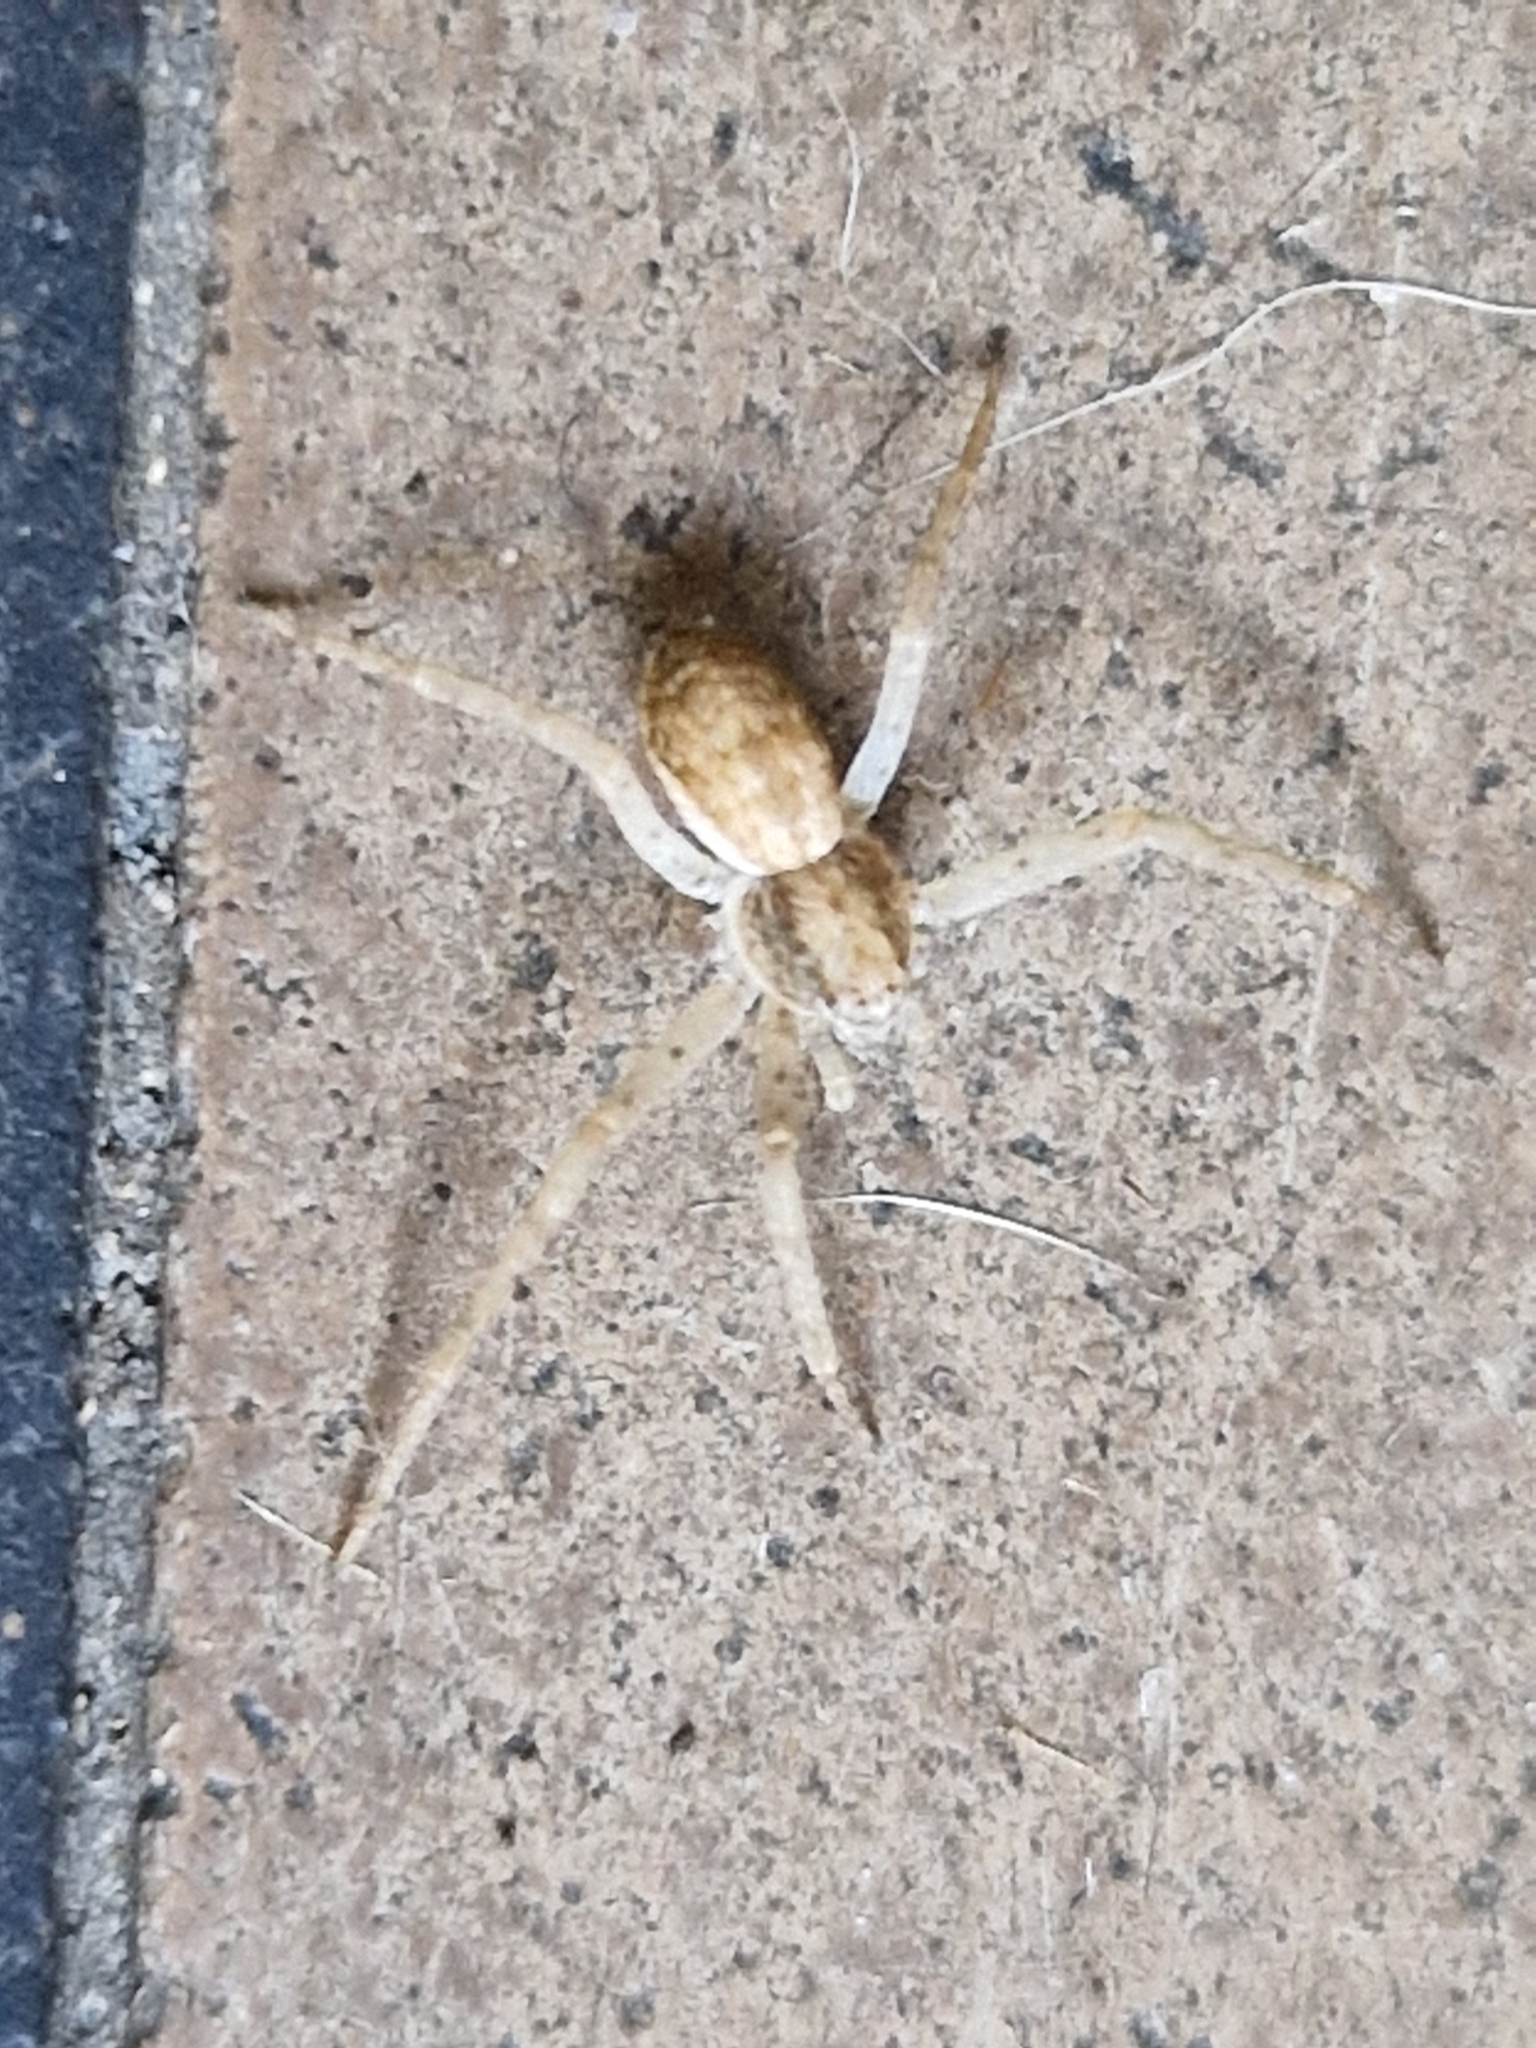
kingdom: Animalia
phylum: Arthropoda
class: Arachnida
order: Araneae
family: Philodromidae
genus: Philodromus
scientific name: Philodromus dispar
